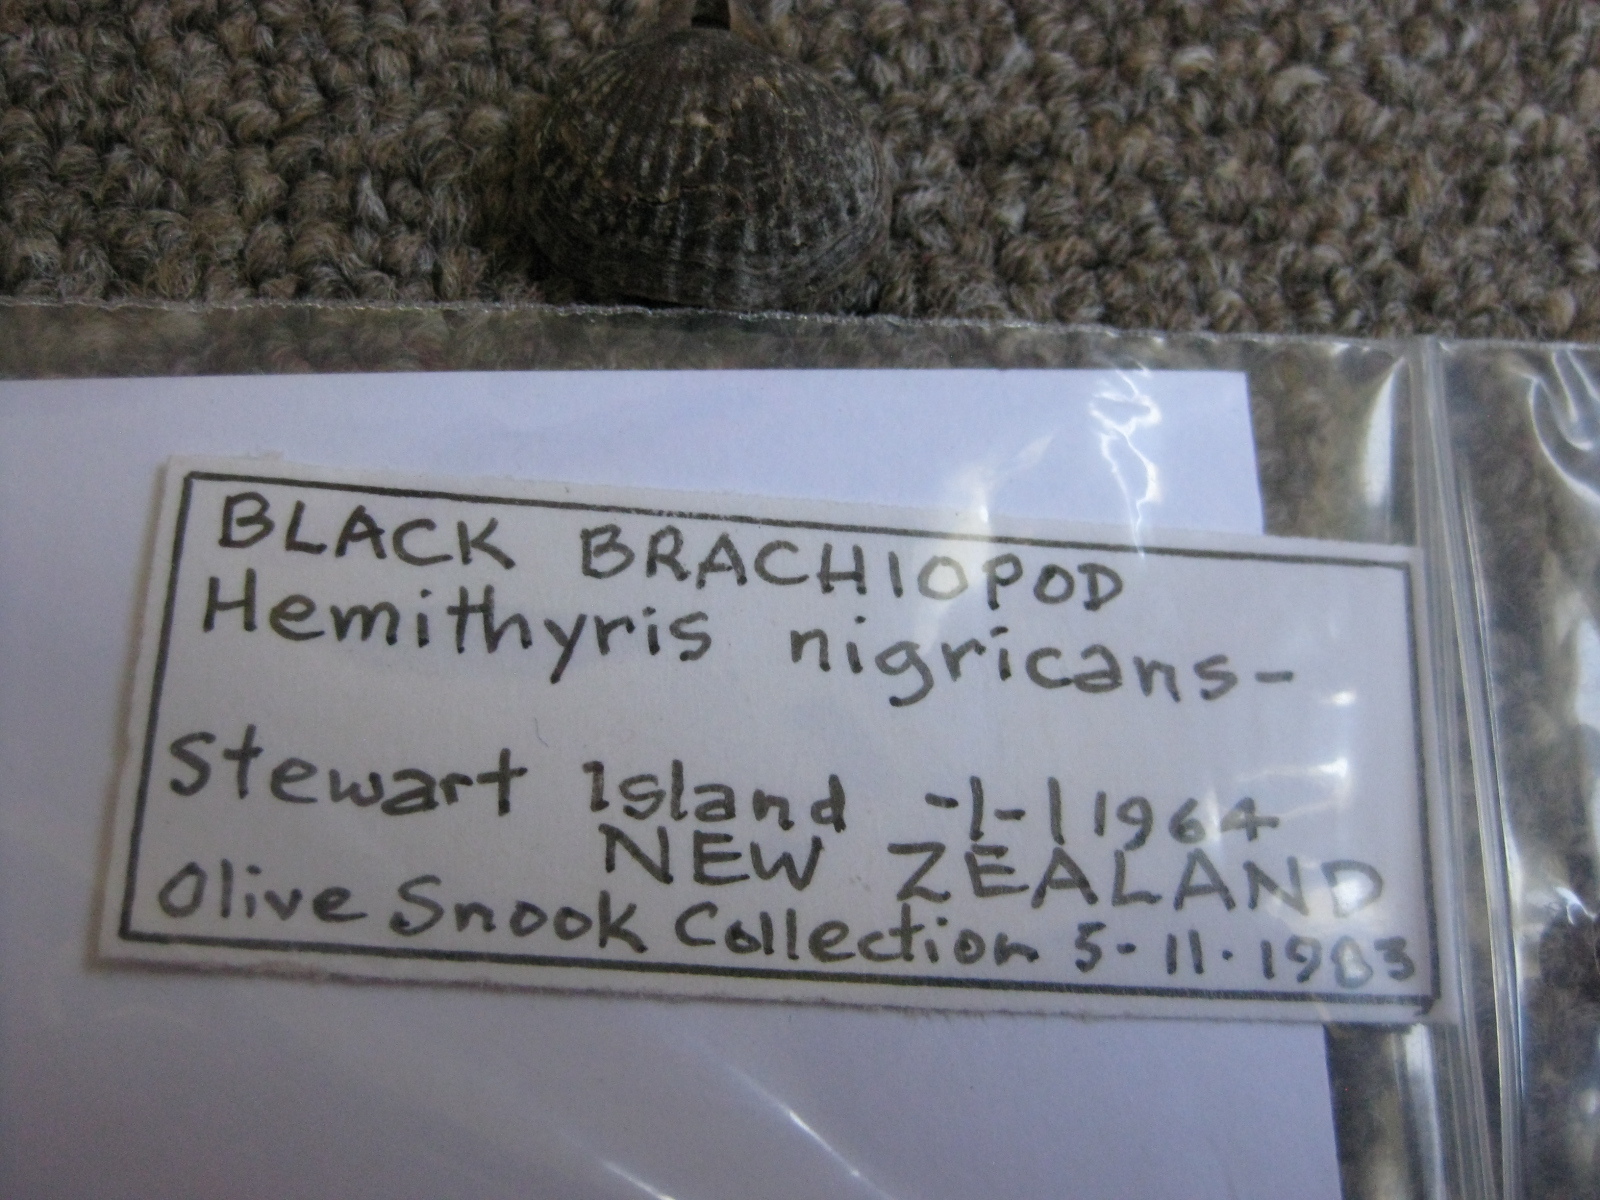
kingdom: Animalia
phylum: Brachiopoda
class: Rhynchonellata
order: Rhynchonellida
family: Notosariidae
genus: Notosaria
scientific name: Notosaria nigricans
